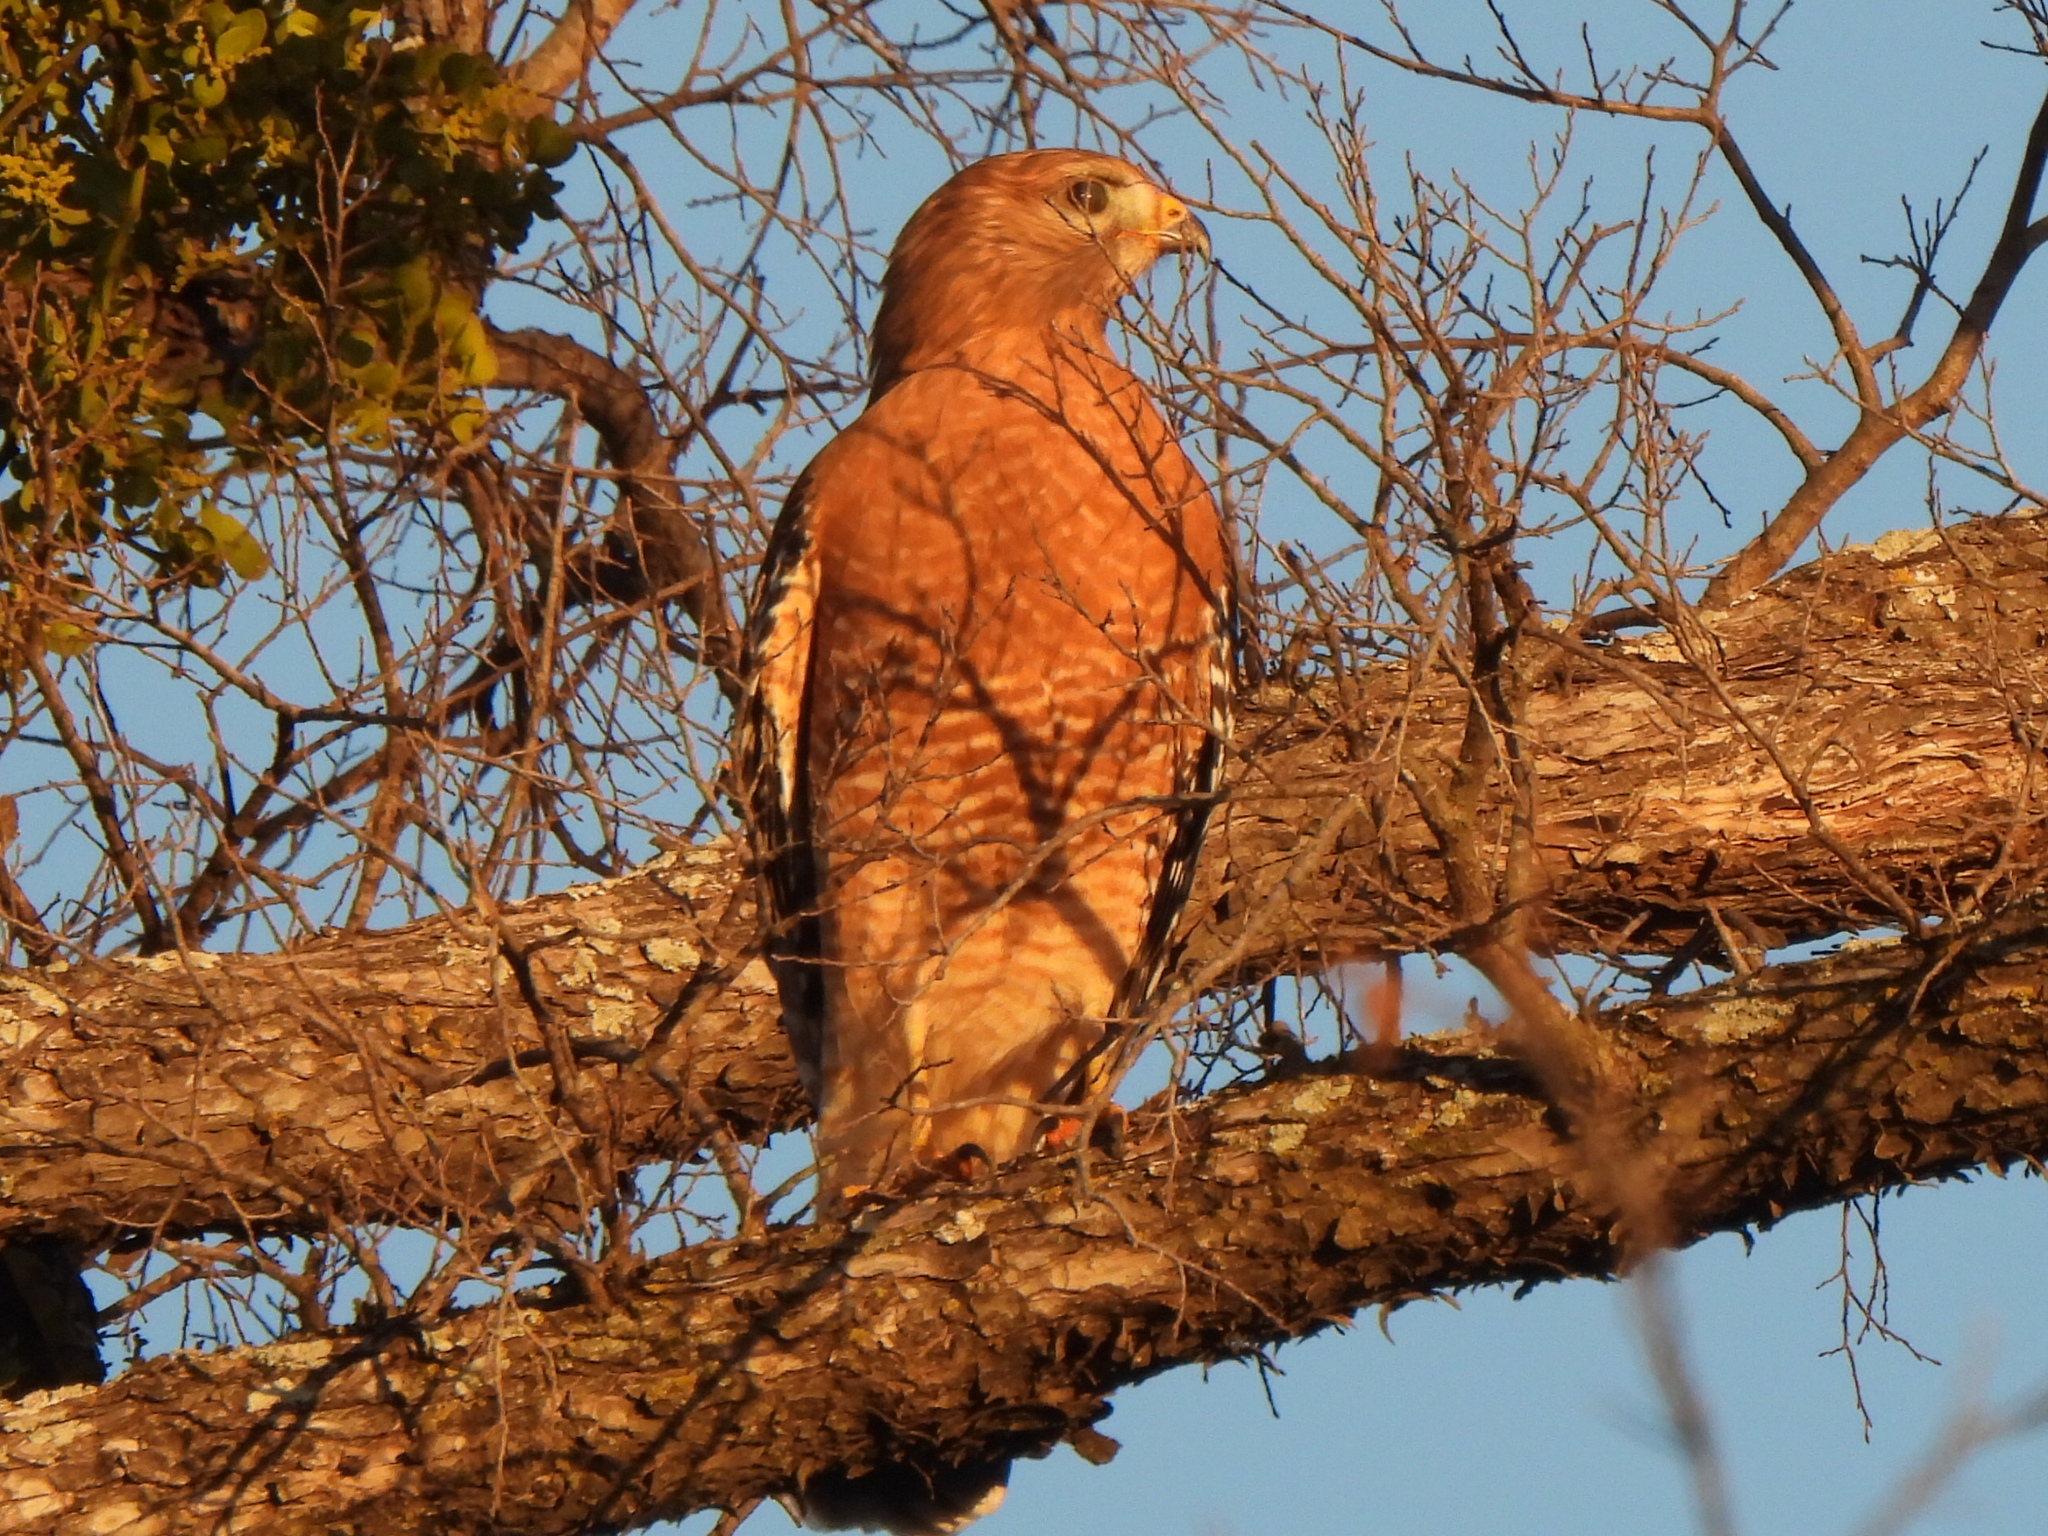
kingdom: Animalia
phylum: Chordata
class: Aves
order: Accipitriformes
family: Accipitridae
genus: Buteo
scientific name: Buteo lineatus
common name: Red-shouldered hawk
